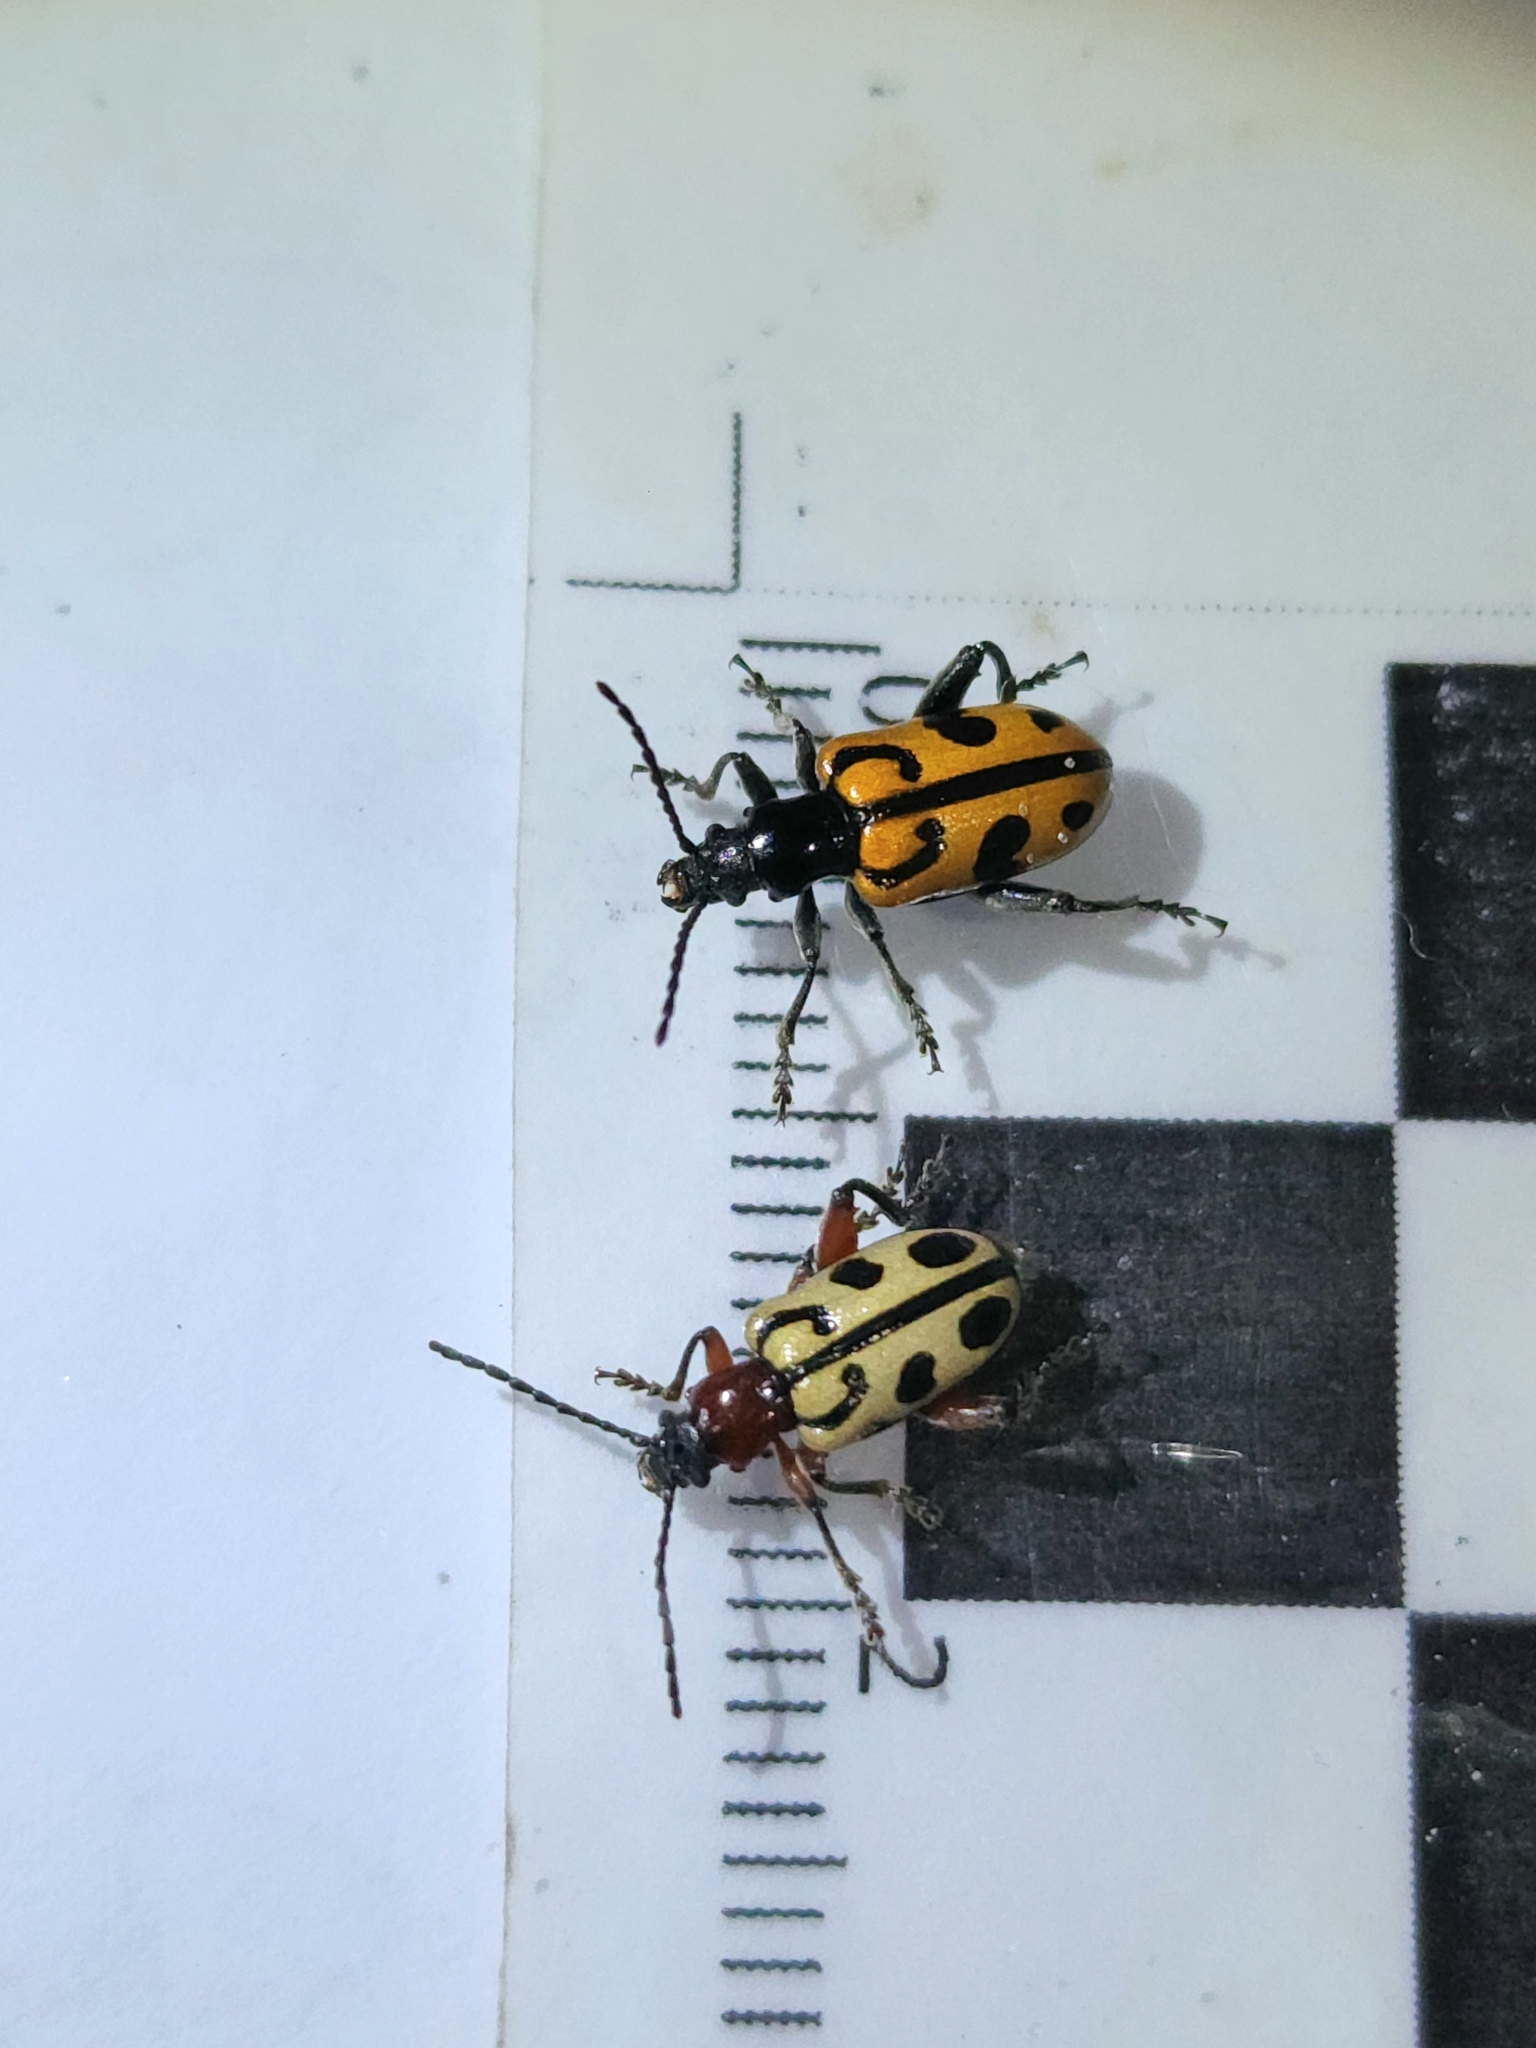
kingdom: Animalia
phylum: Arthropoda
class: Insecta
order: Coleoptera
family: Chrysomelidae
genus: Atalasis
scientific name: Atalasis
